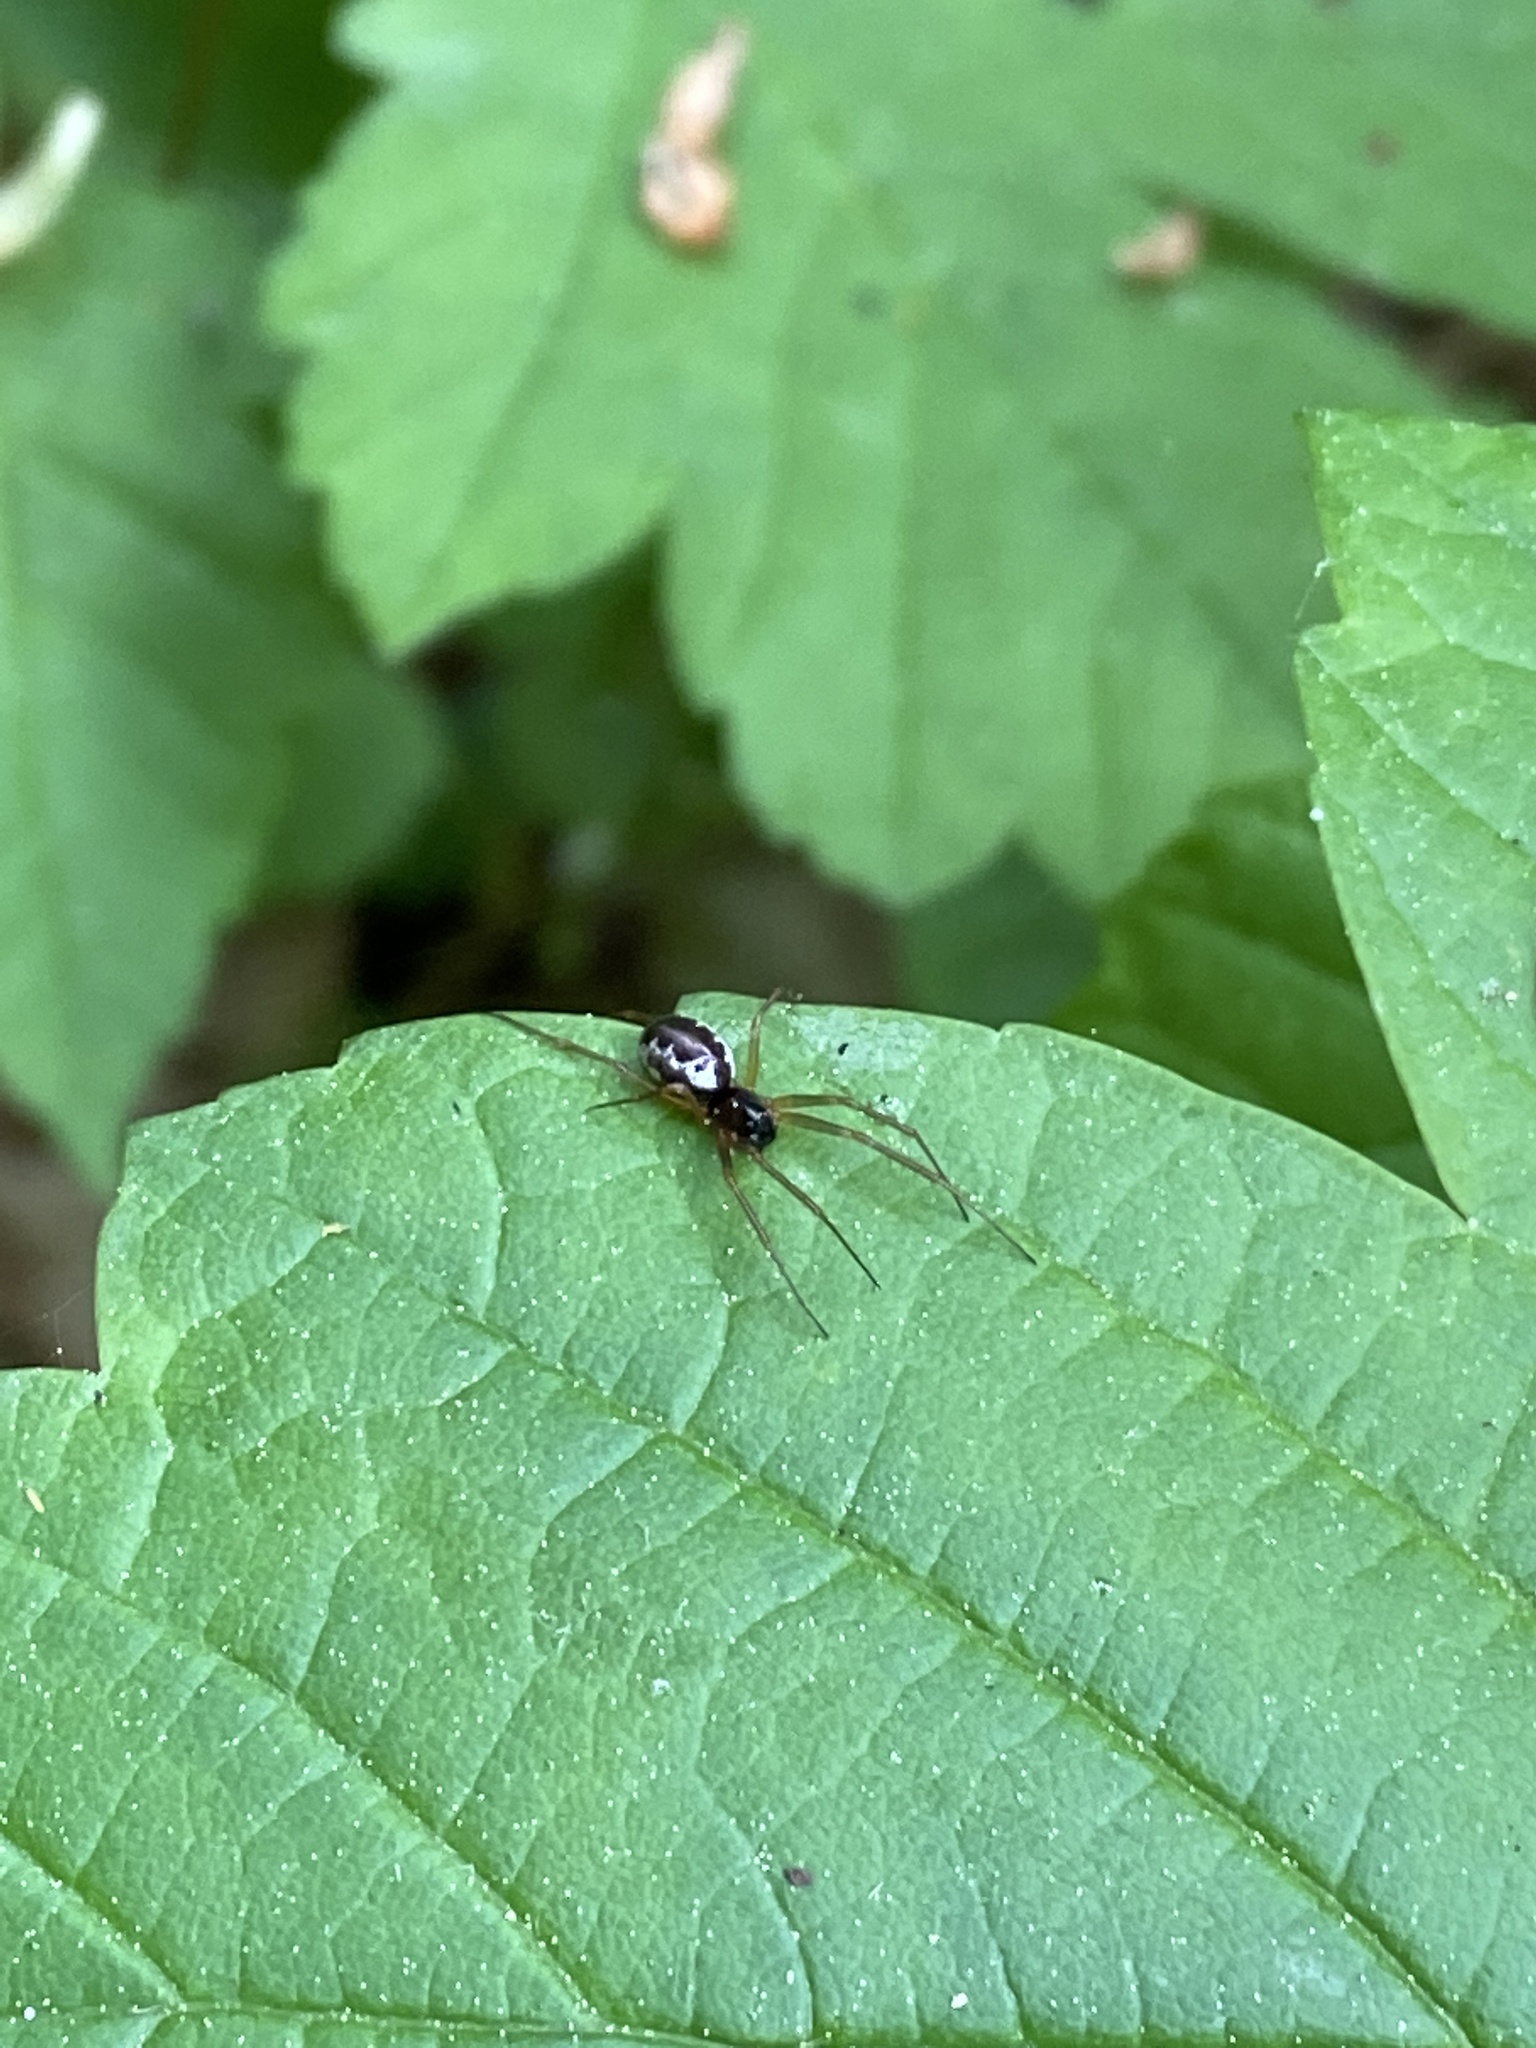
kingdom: Animalia
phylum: Arthropoda
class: Arachnida
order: Araneae
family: Linyphiidae
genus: Linyphia
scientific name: Linyphia hortensis
